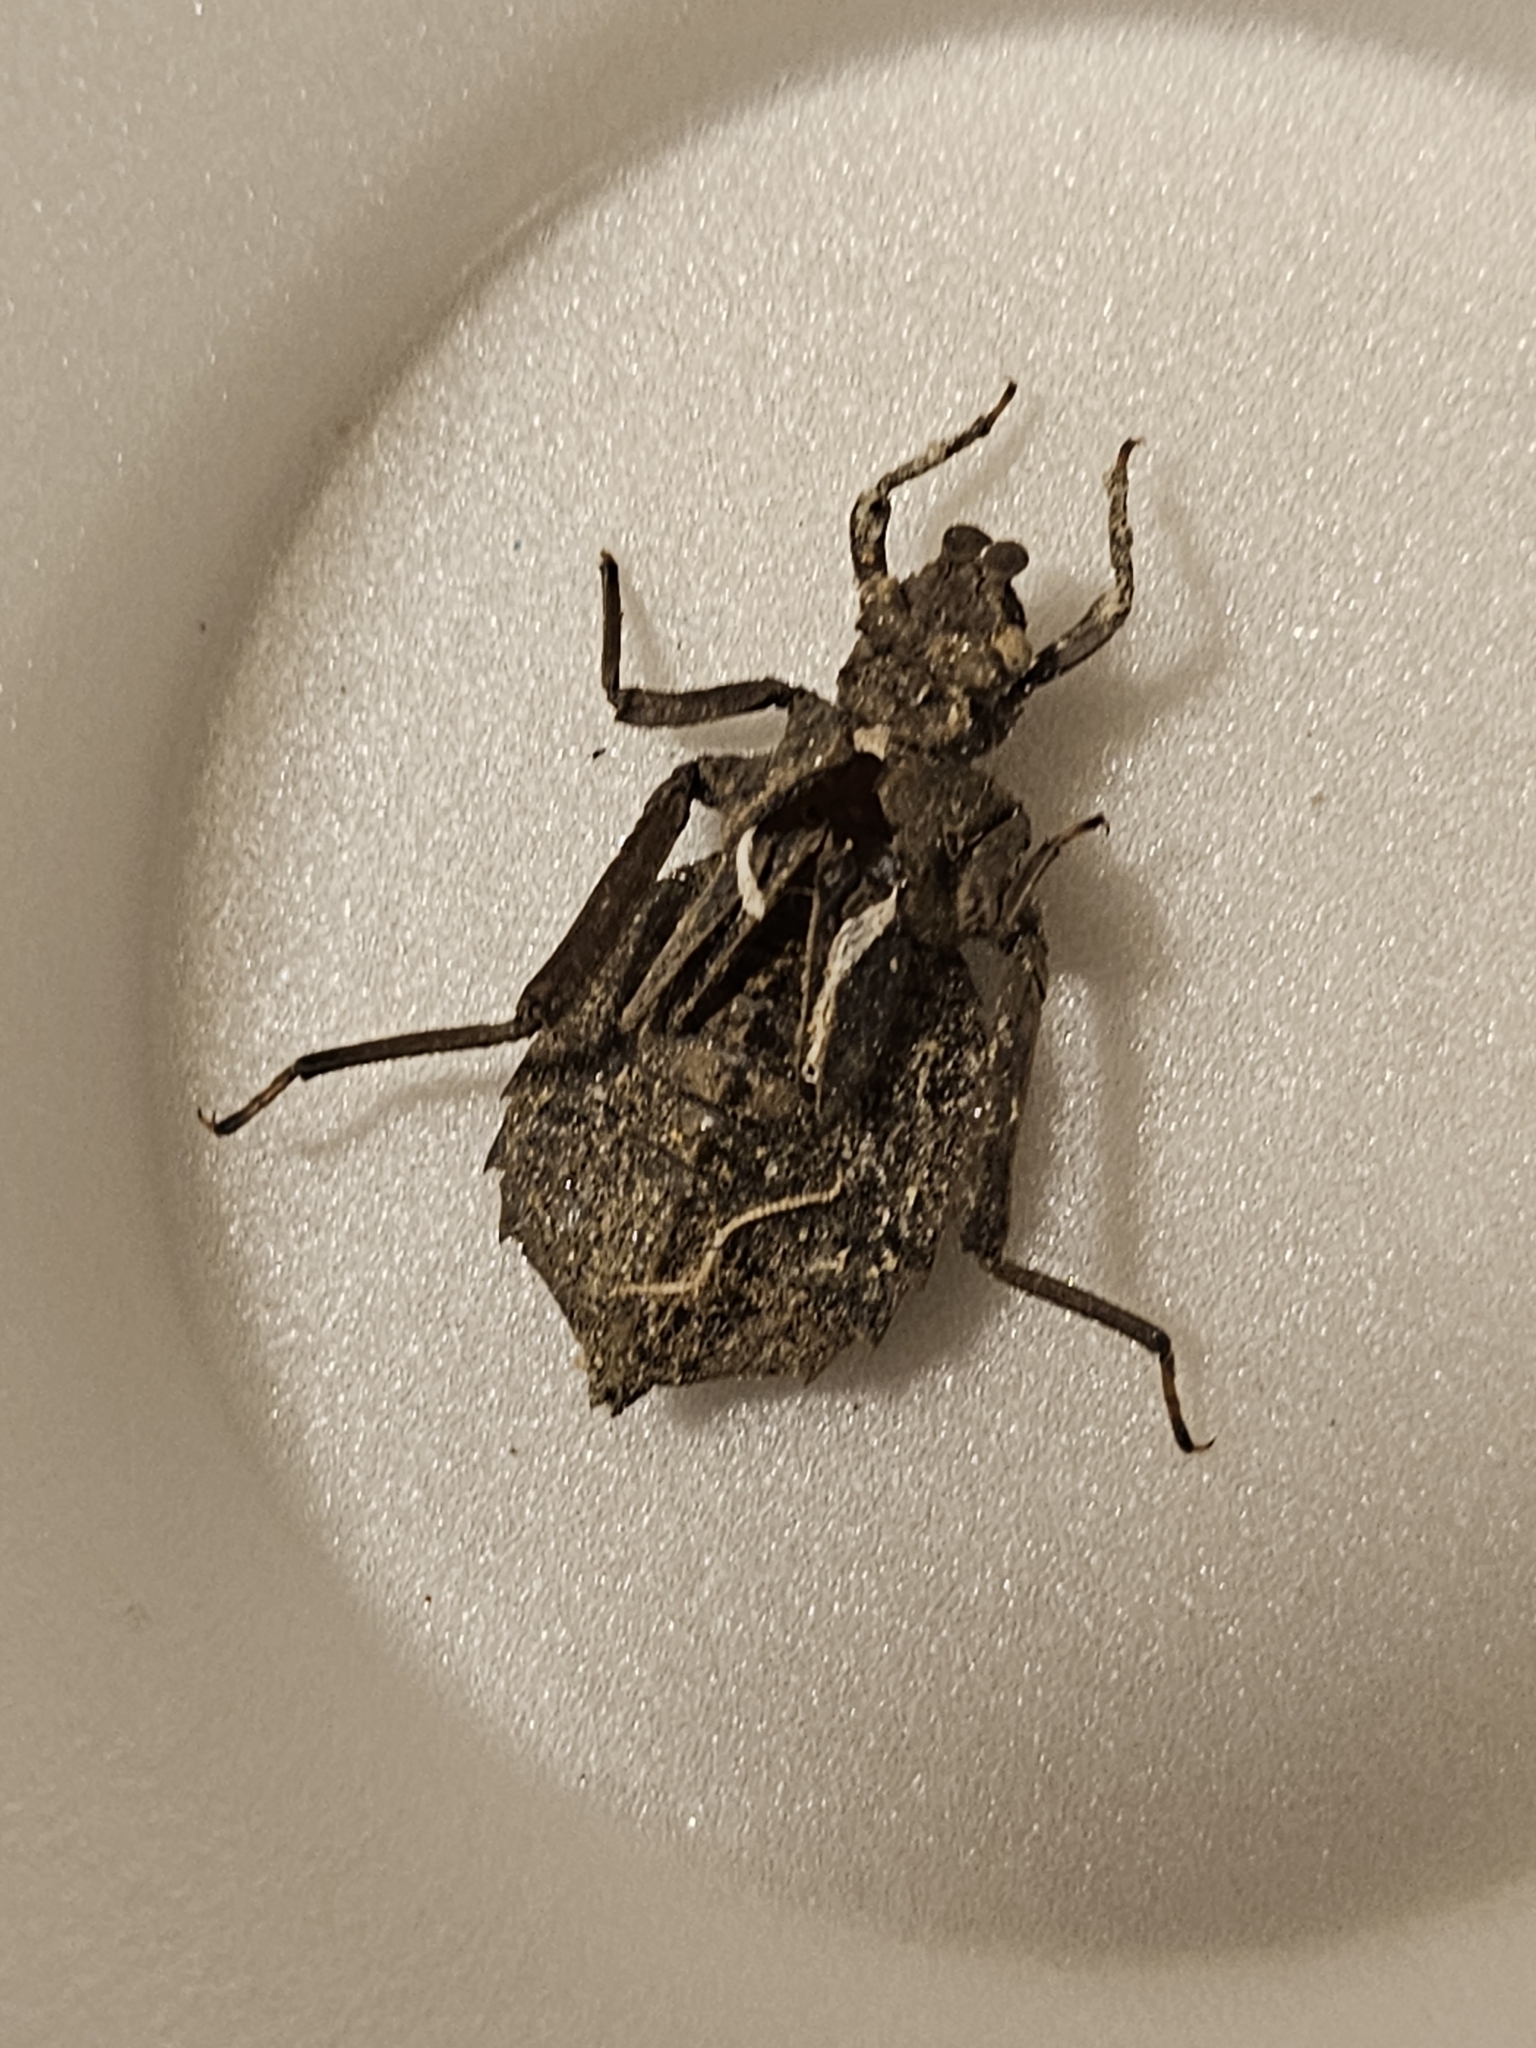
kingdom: Animalia
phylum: Arthropoda
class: Insecta
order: Odonata
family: Gomphidae
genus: Hagenius
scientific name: Hagenius brevistylus
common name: Dragonhunter
